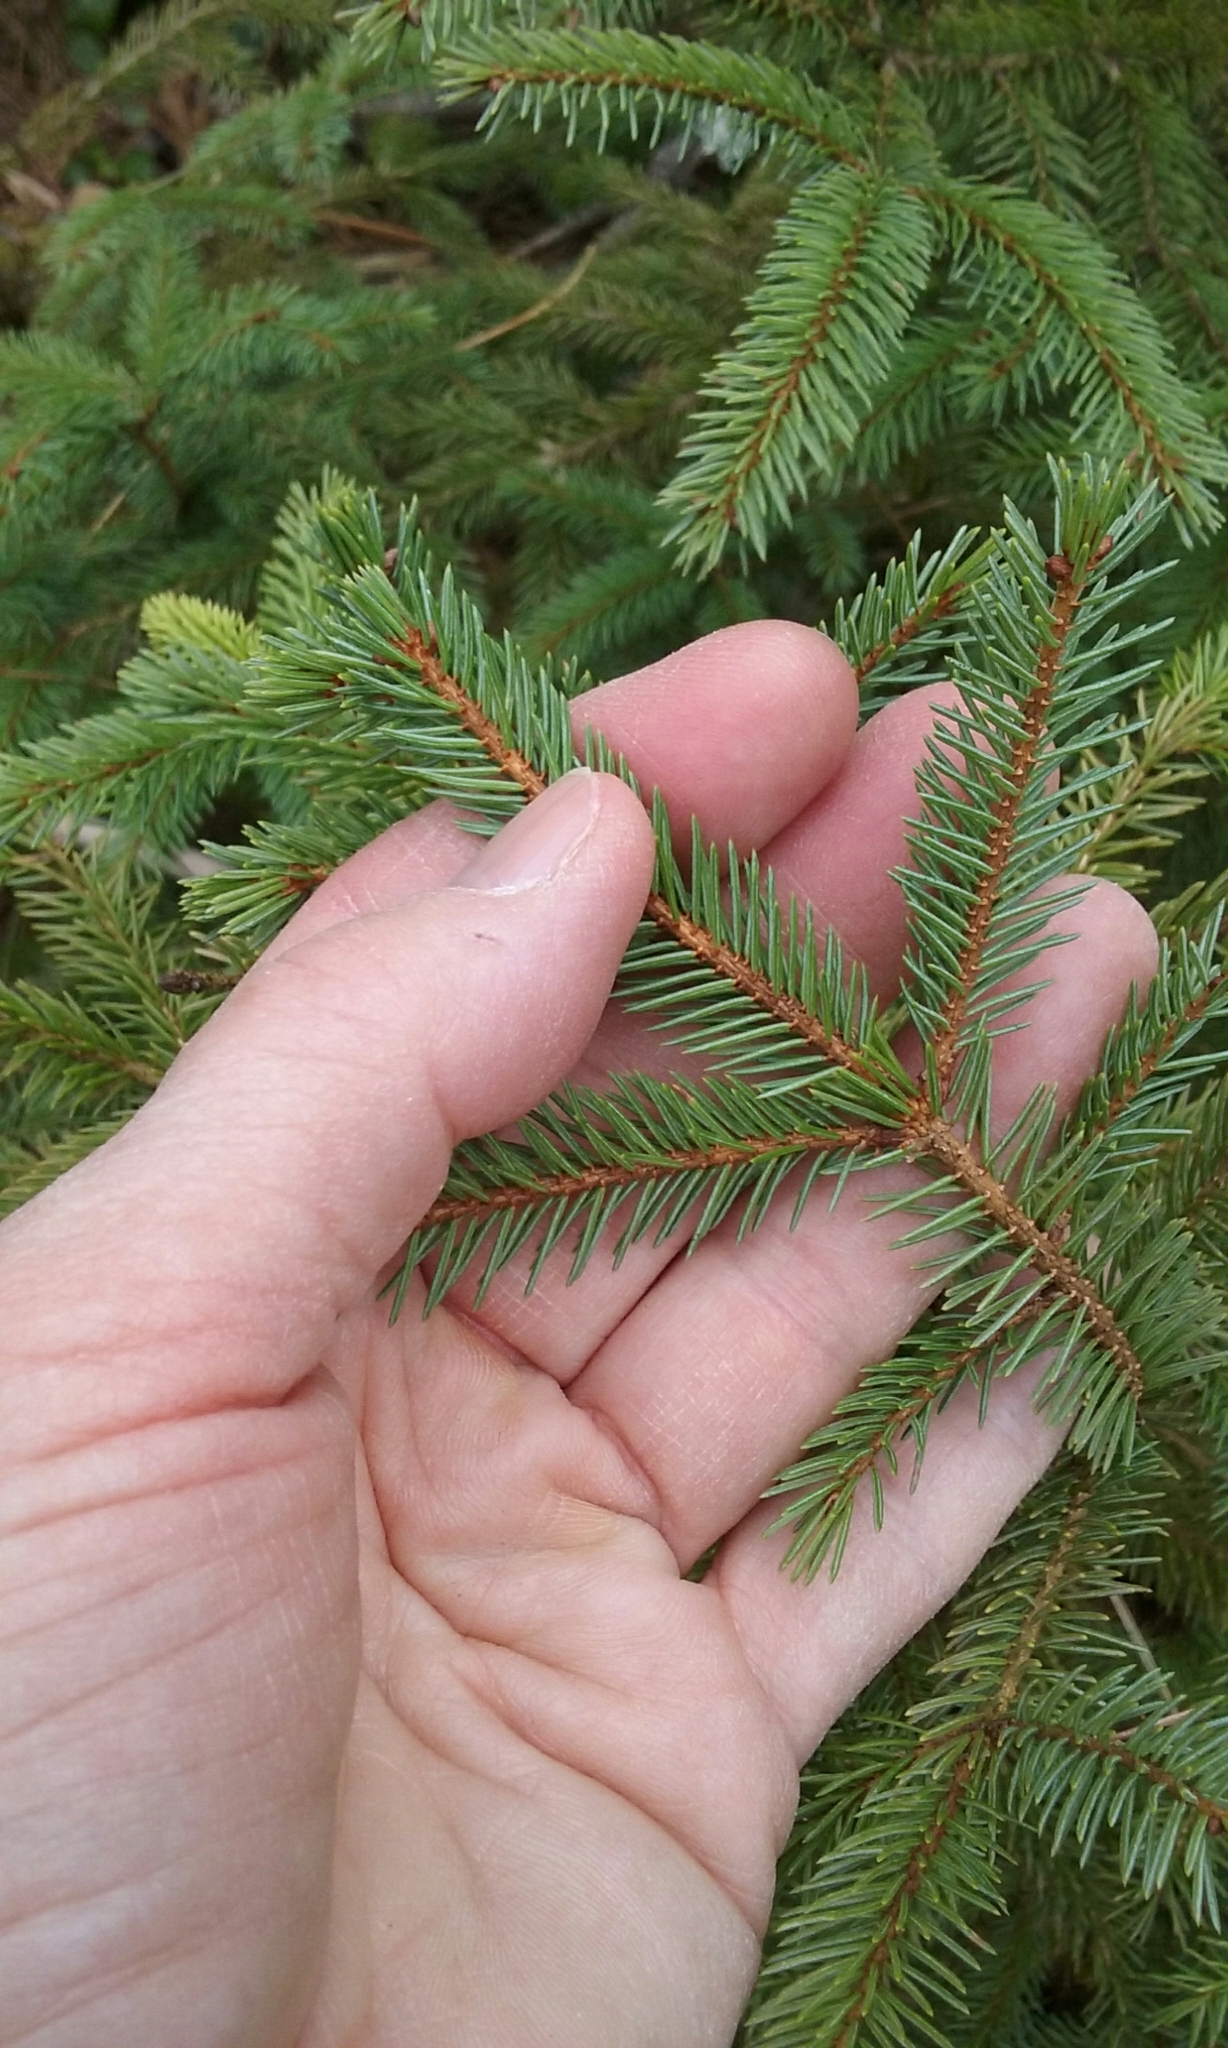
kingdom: Plantae
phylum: Tracheophyta
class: Pinopsida
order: Pinales
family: Pinaceae
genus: Picea
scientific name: Picea rubens
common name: Red spruce
